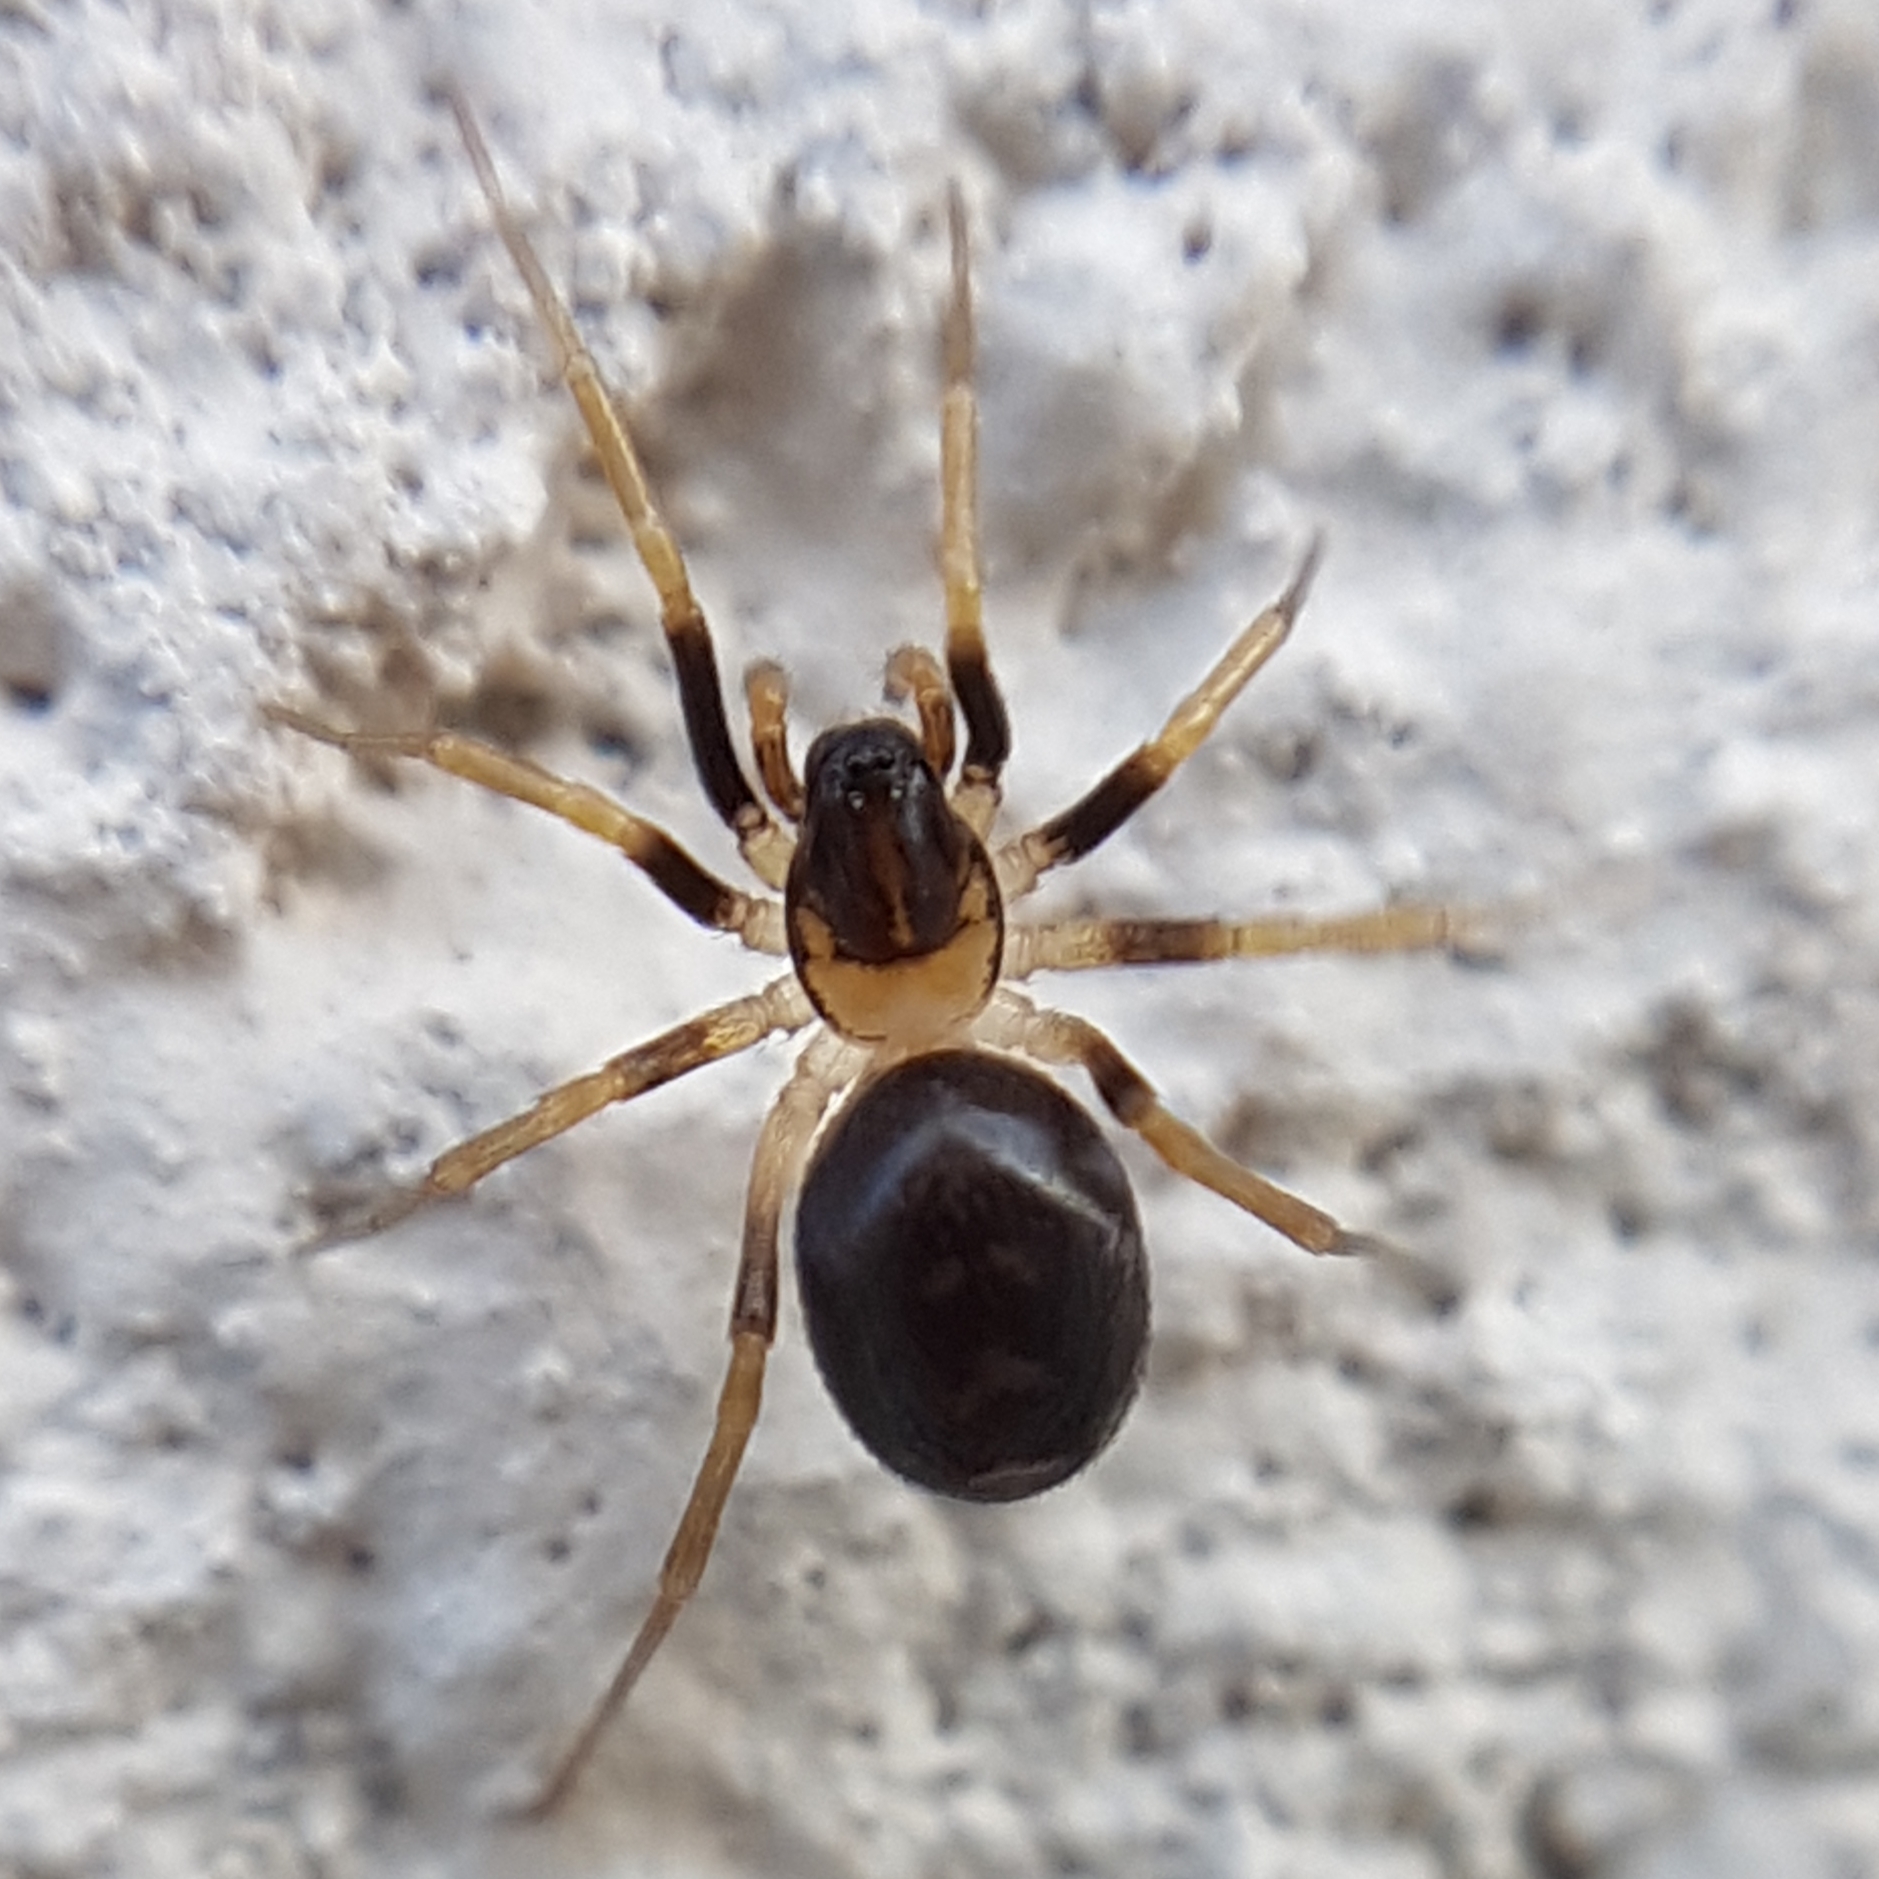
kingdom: Animalia
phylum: Arthropoda
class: Arachnida
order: Araneae
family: Zodariidae
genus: Zodarion
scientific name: Zodarion elegans
